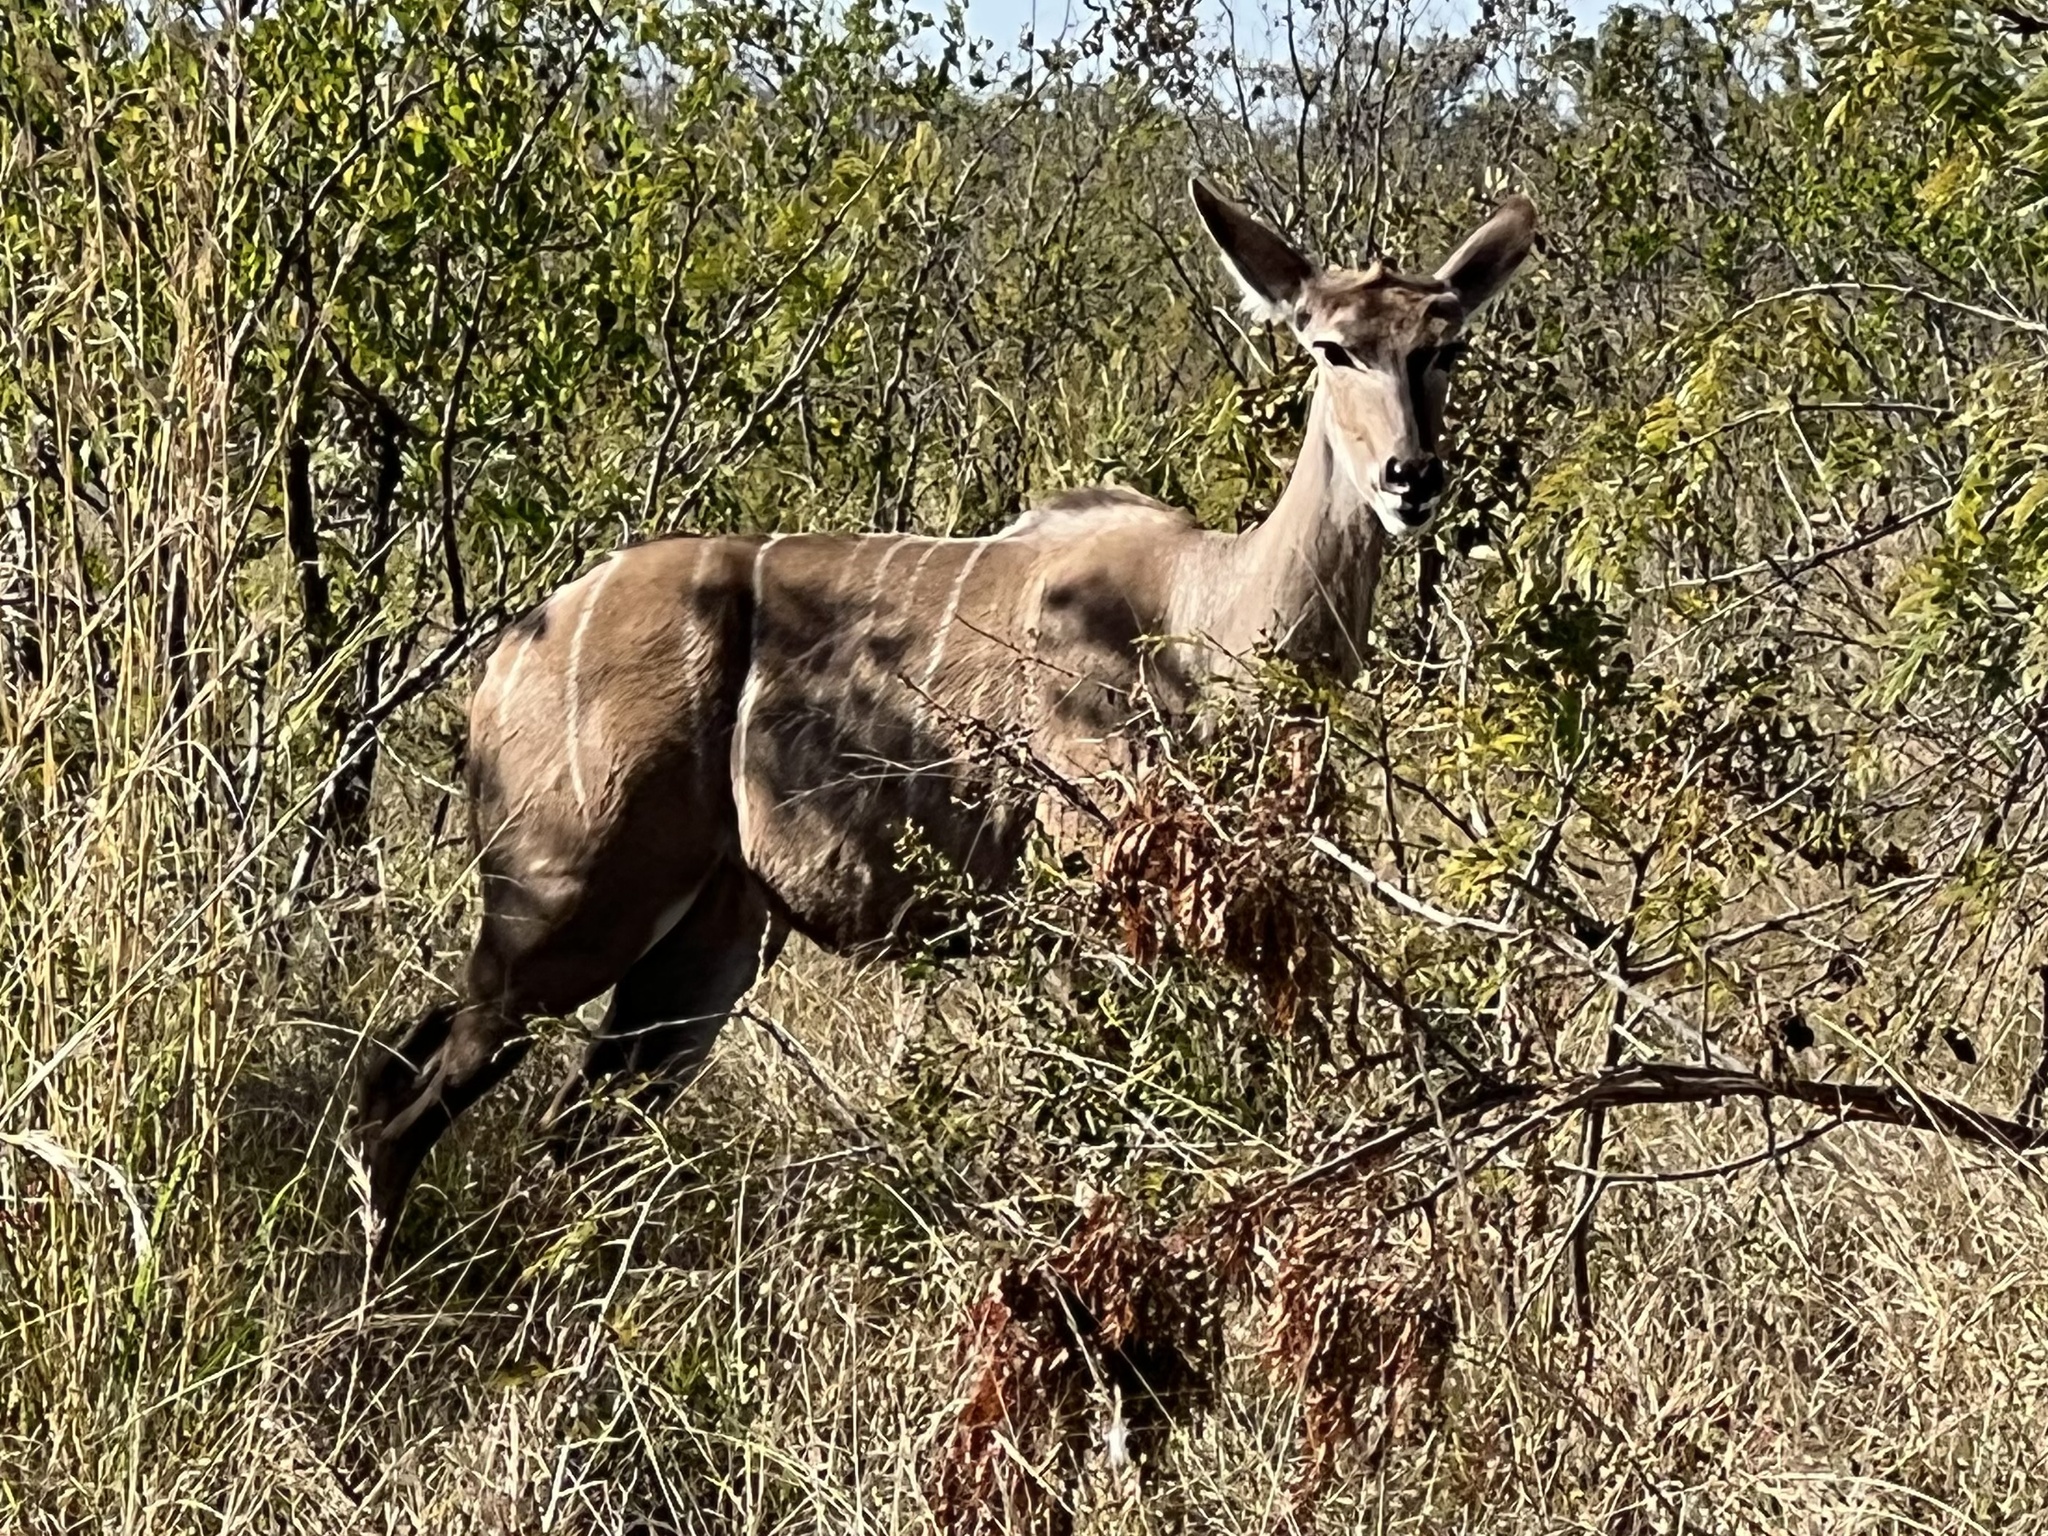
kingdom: Animalia
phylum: Chordata
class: Mammalia
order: Artiodactyla
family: Bovidae
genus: Tragelaphus
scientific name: Tragelaphus strepsiceros
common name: Greater kudu
